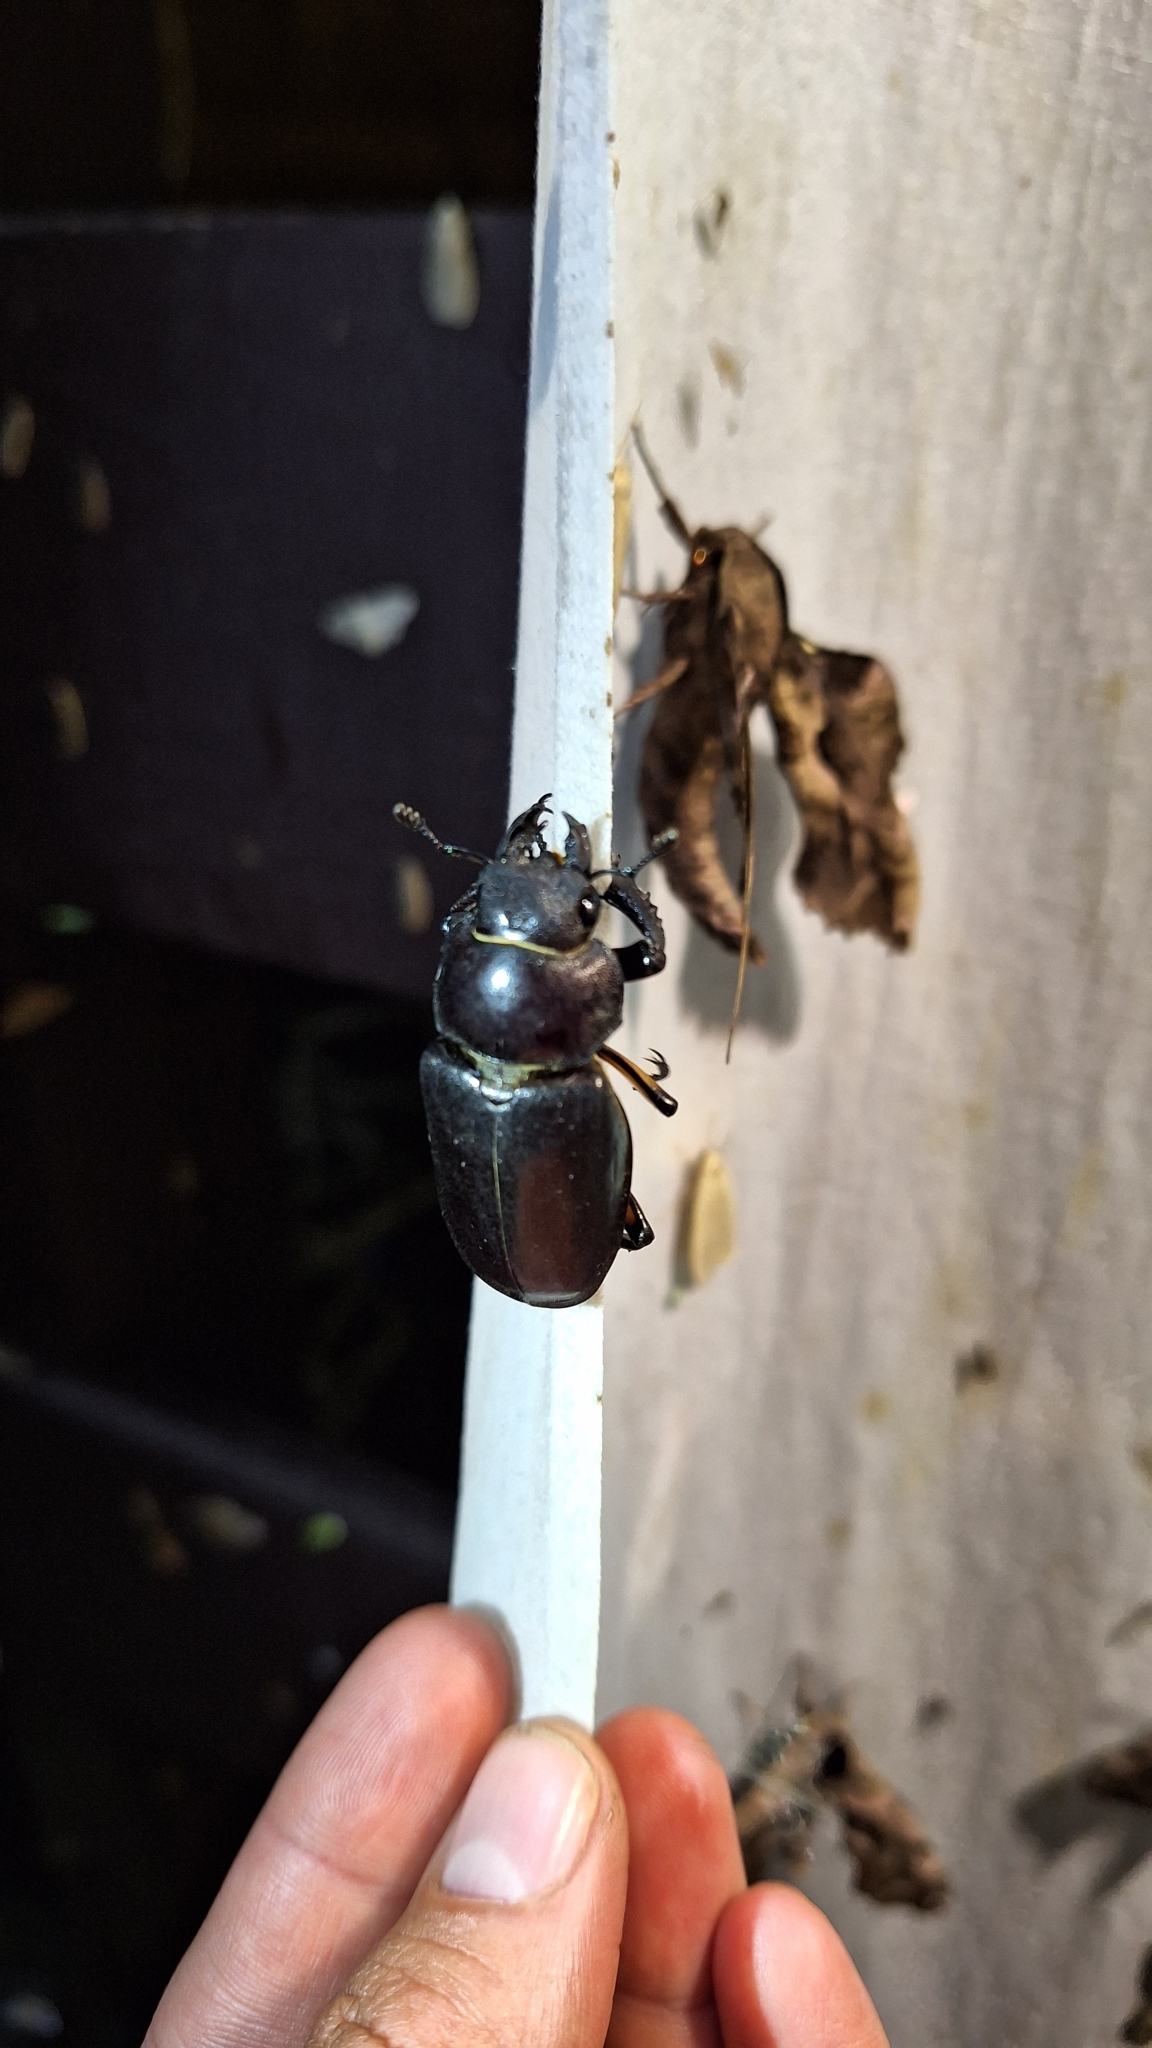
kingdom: Animalia
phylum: Arthropoda
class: Insecta
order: Coleoptera
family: Lucanidae
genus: Lucanus
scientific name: Lucanus maculifemoratus
